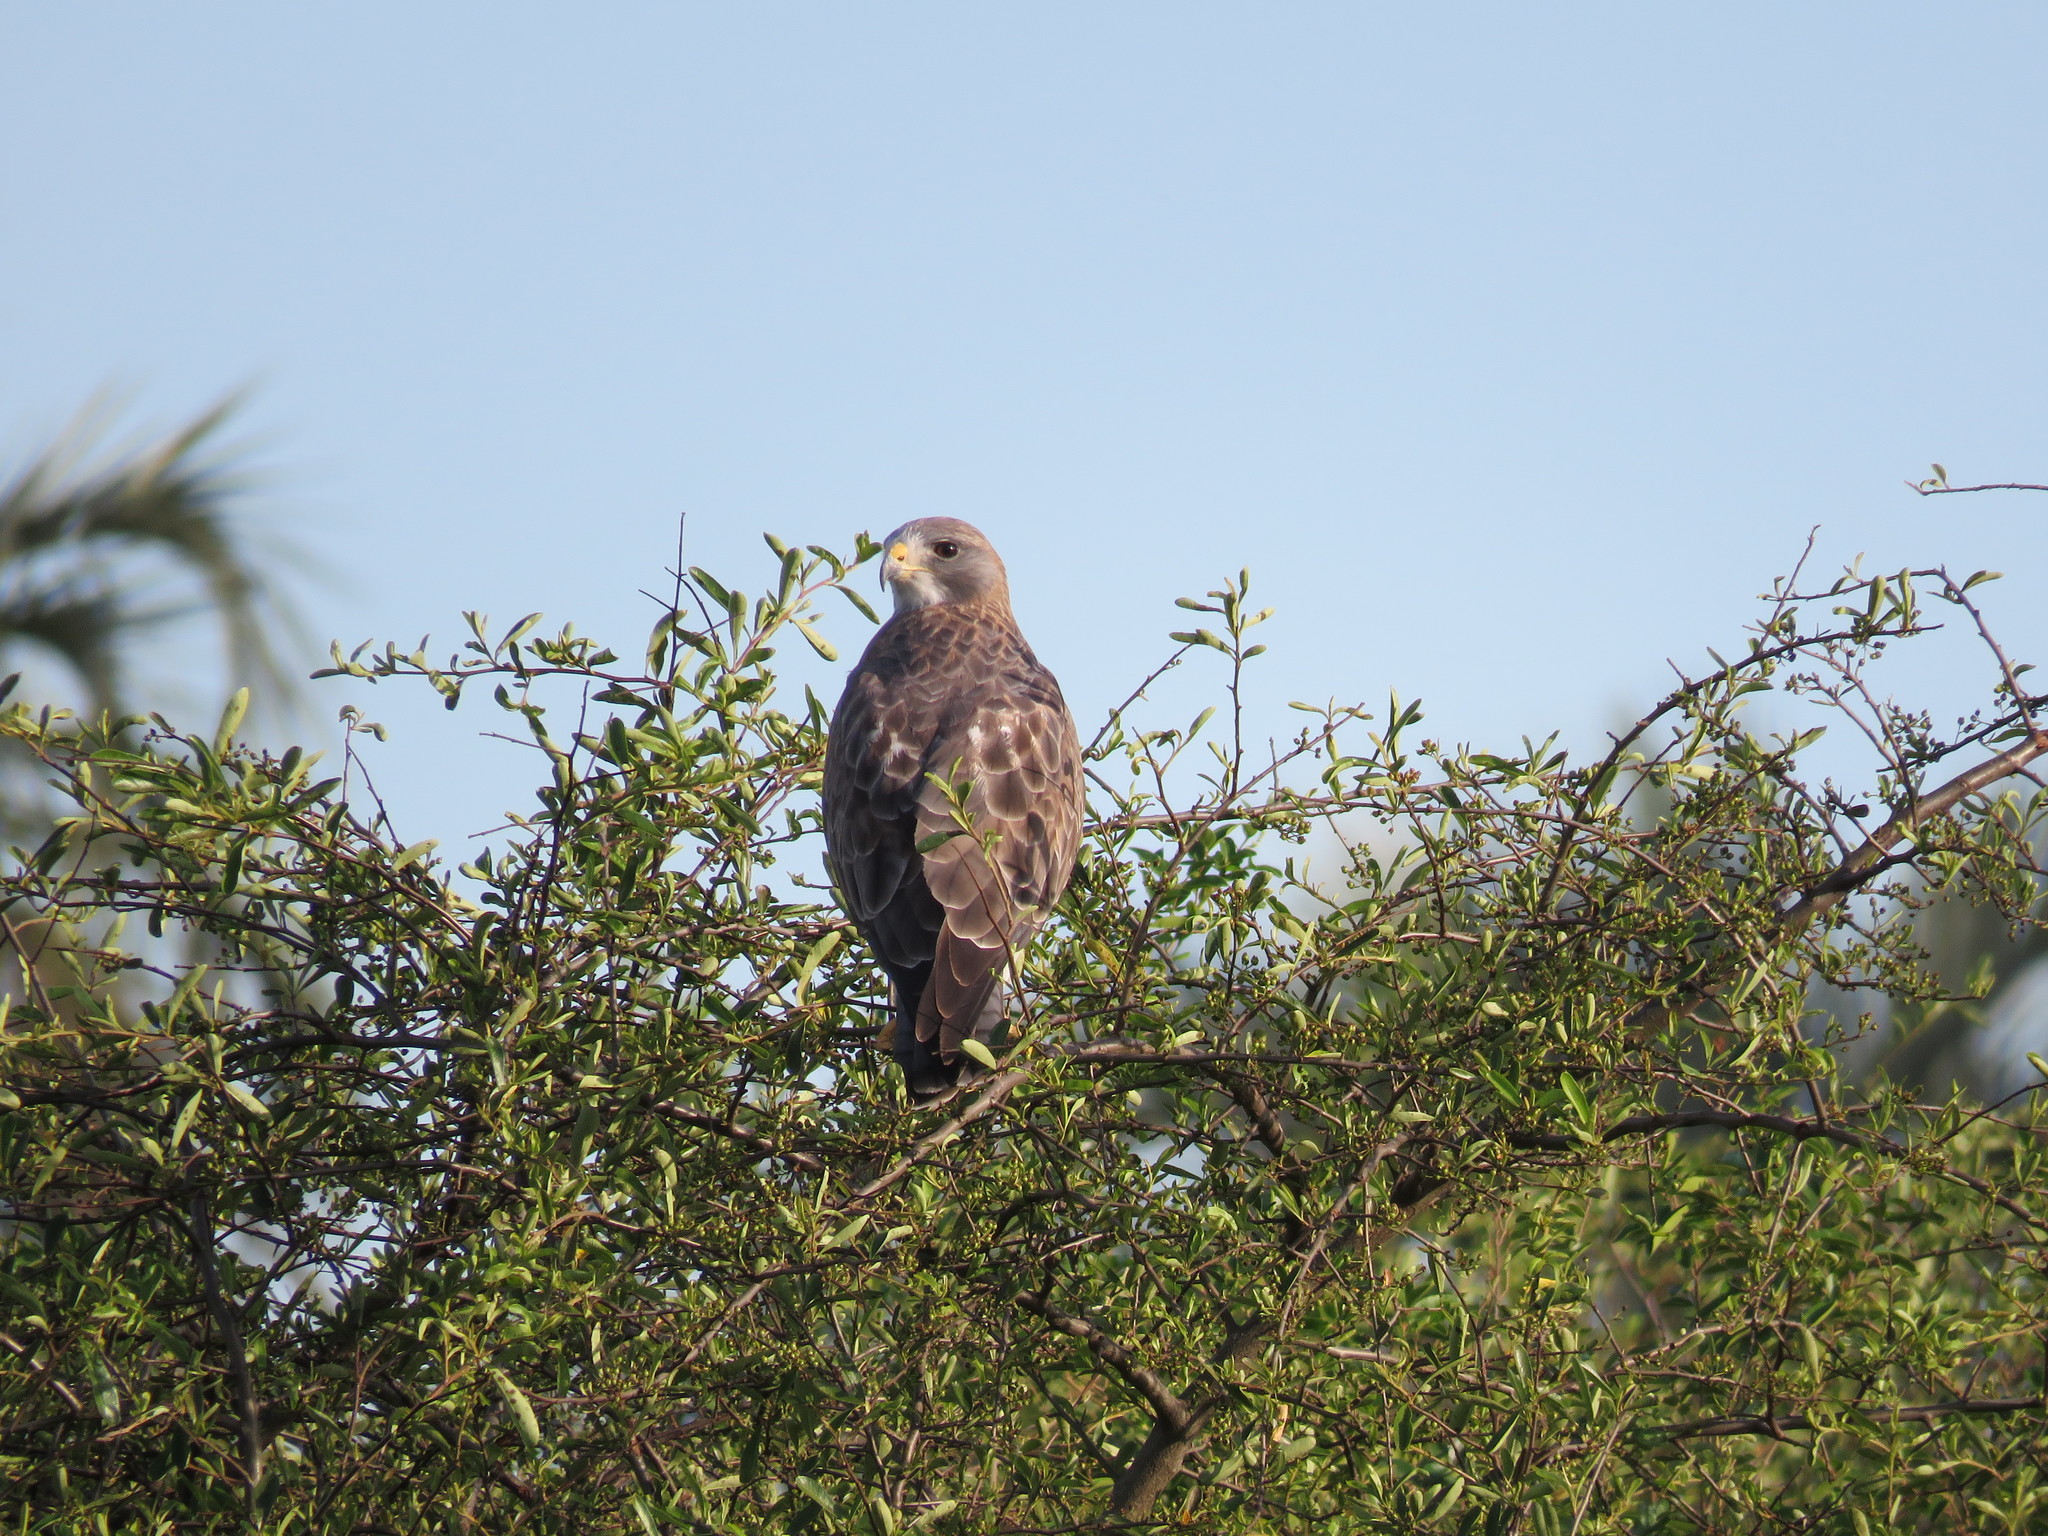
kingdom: Animalia
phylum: Chordata
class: Aves
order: Accipitriformes
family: Accipitridae
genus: Buteo
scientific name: Buteo swainsoni
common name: Swainson's hawk
